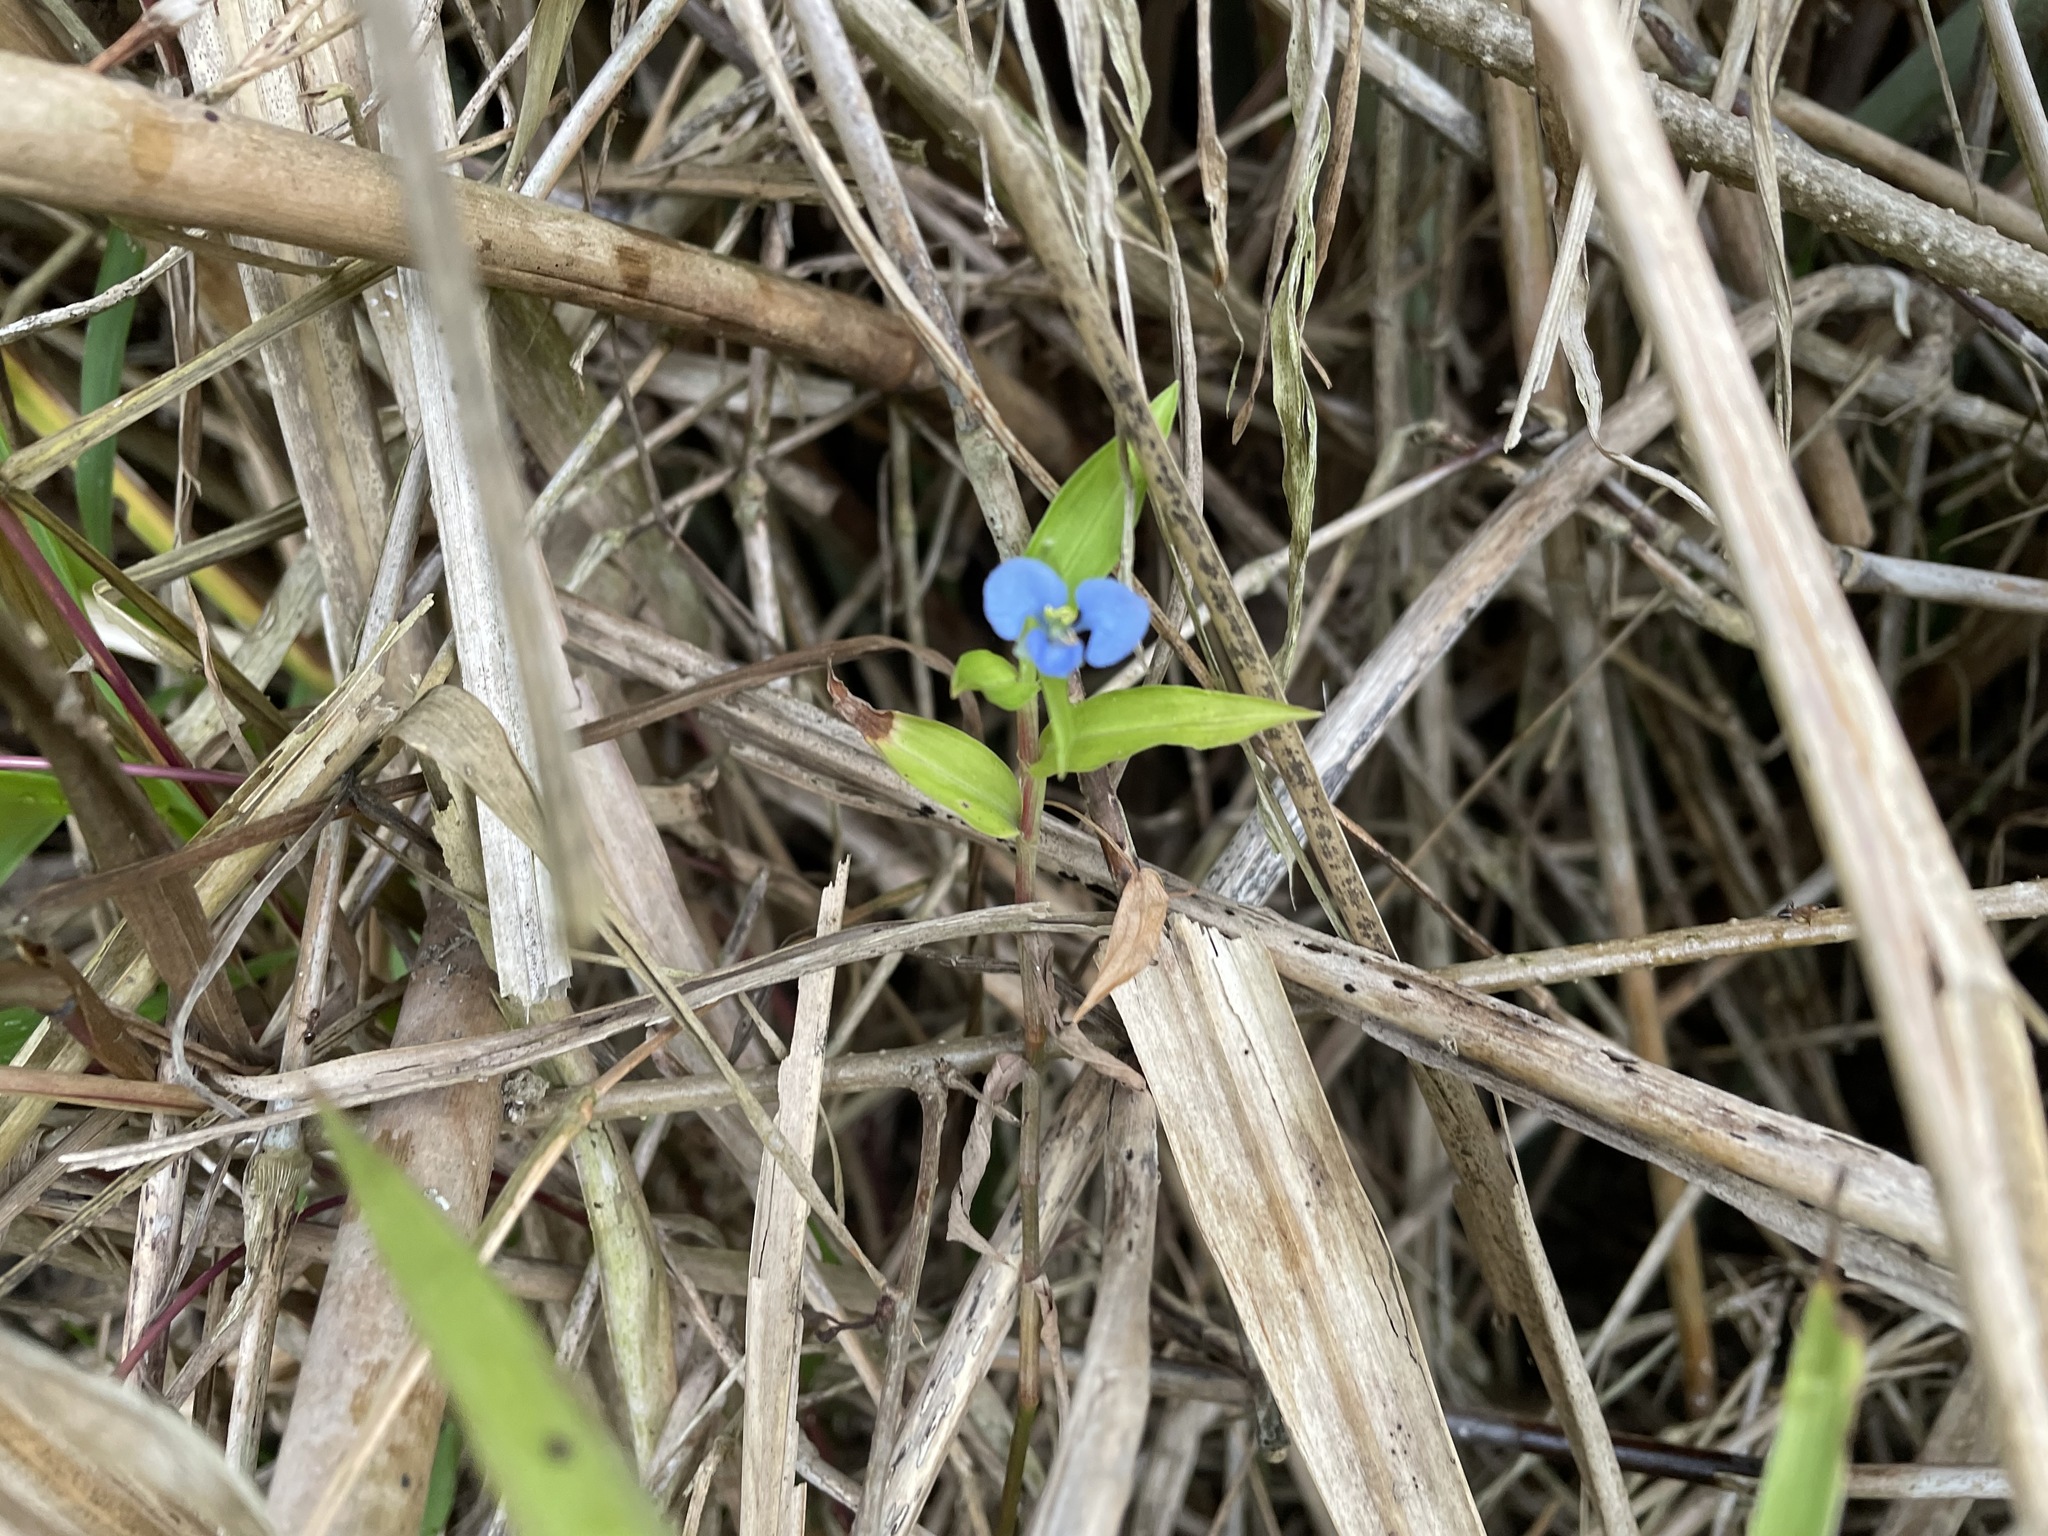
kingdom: Plantae
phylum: Tracheophyta
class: Liliopsida
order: Commelinales
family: Commelinaceae
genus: Commelina
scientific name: Commelina diffusa
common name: Climbing dayflower
